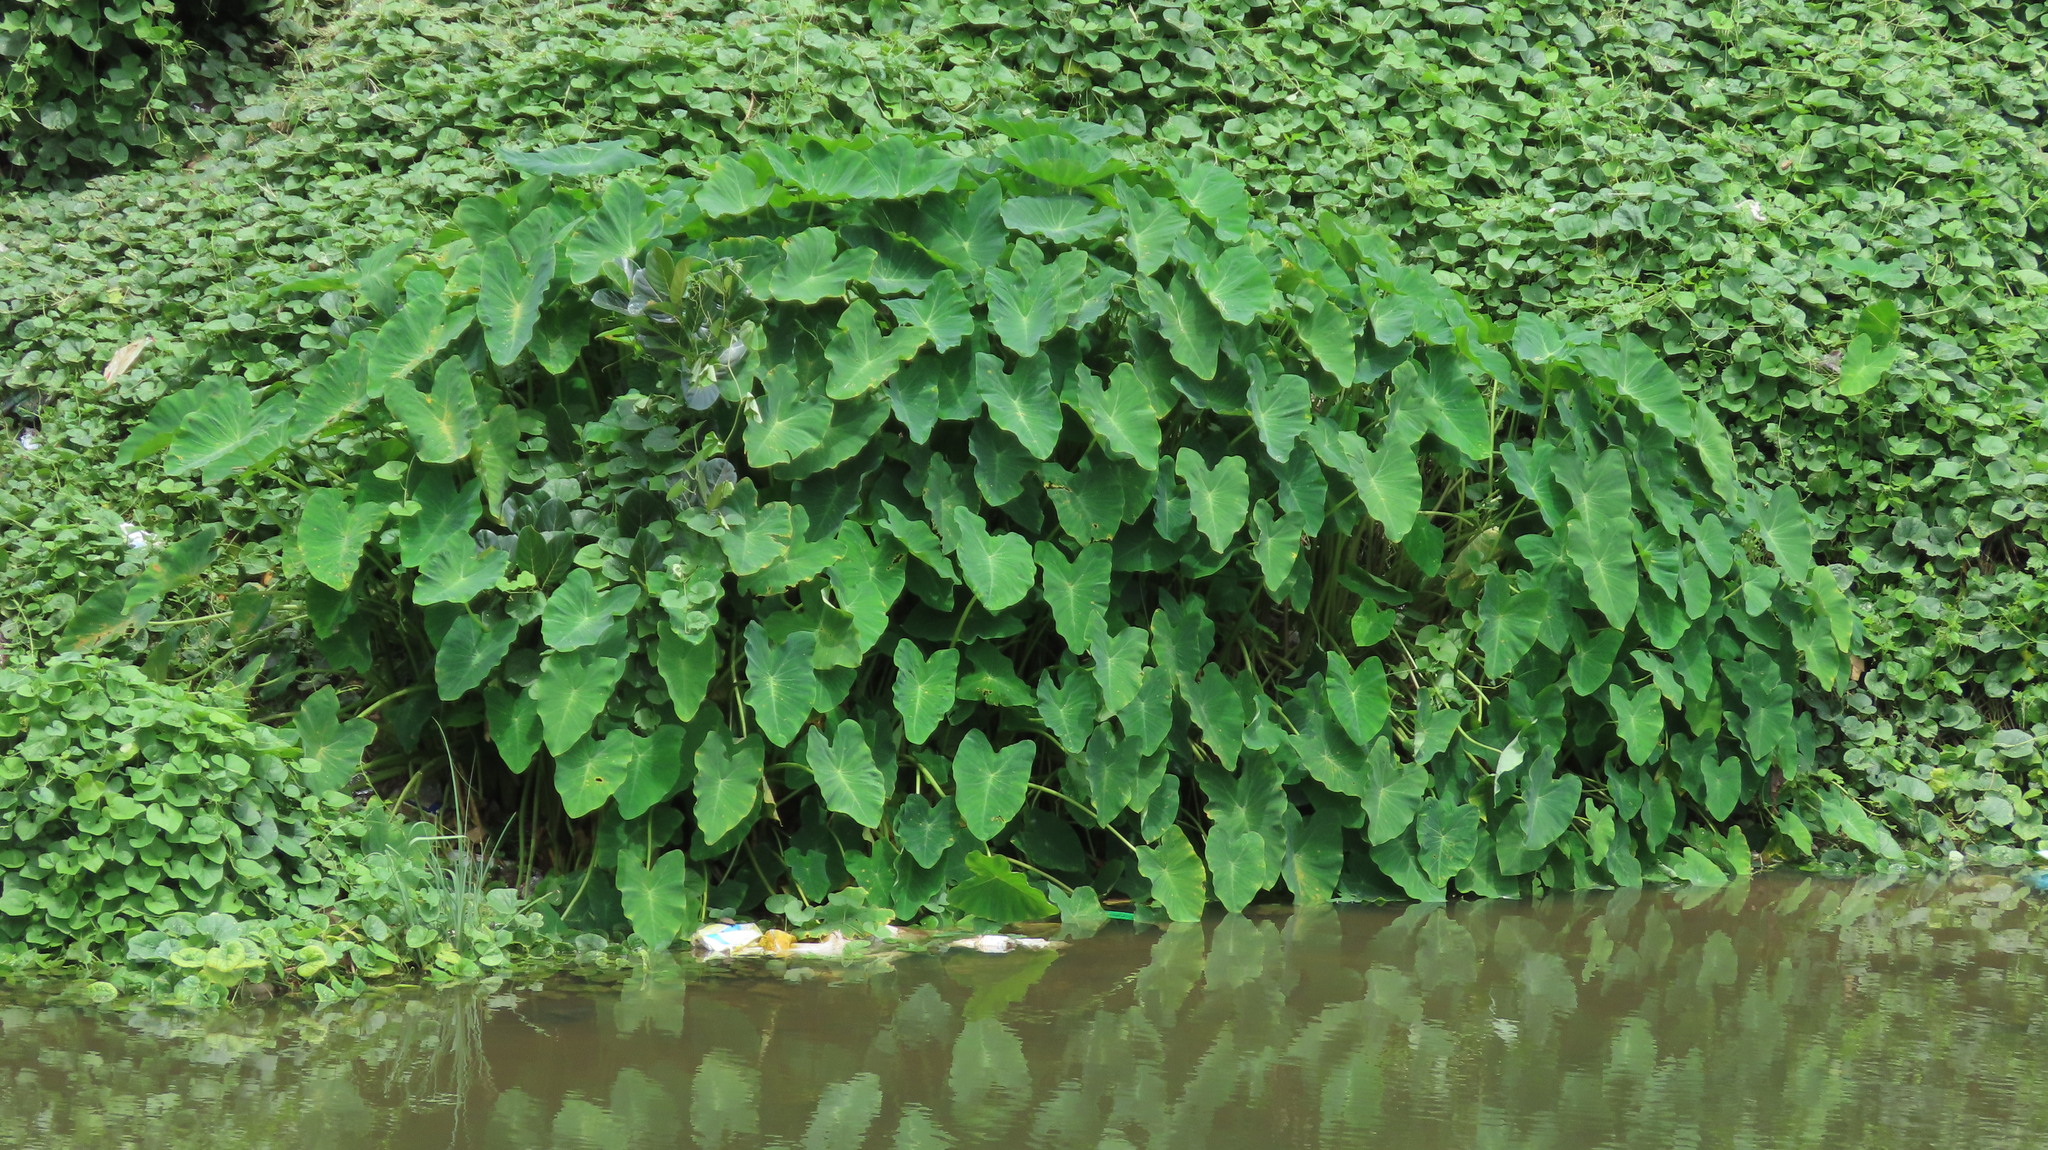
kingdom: Plantae
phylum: Tracheophyta
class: Liliopsida
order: Alismatales
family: Araceae
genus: Colocasia
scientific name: Colocasia esculenta
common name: Taro
